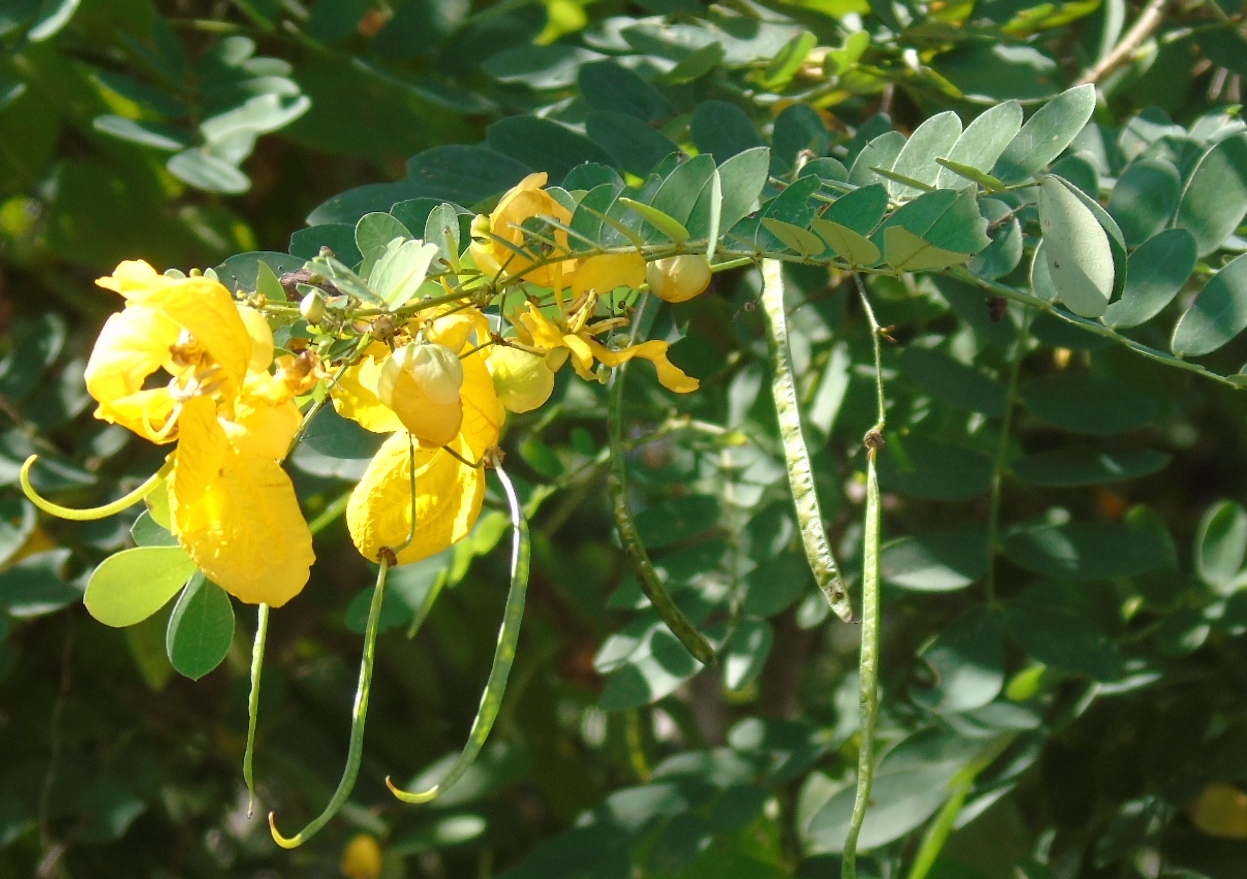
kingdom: Plantae
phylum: Tracheophyta
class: Magnoliopsida
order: Fabales
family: Fabaceae
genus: Senna
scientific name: Senna pallida
